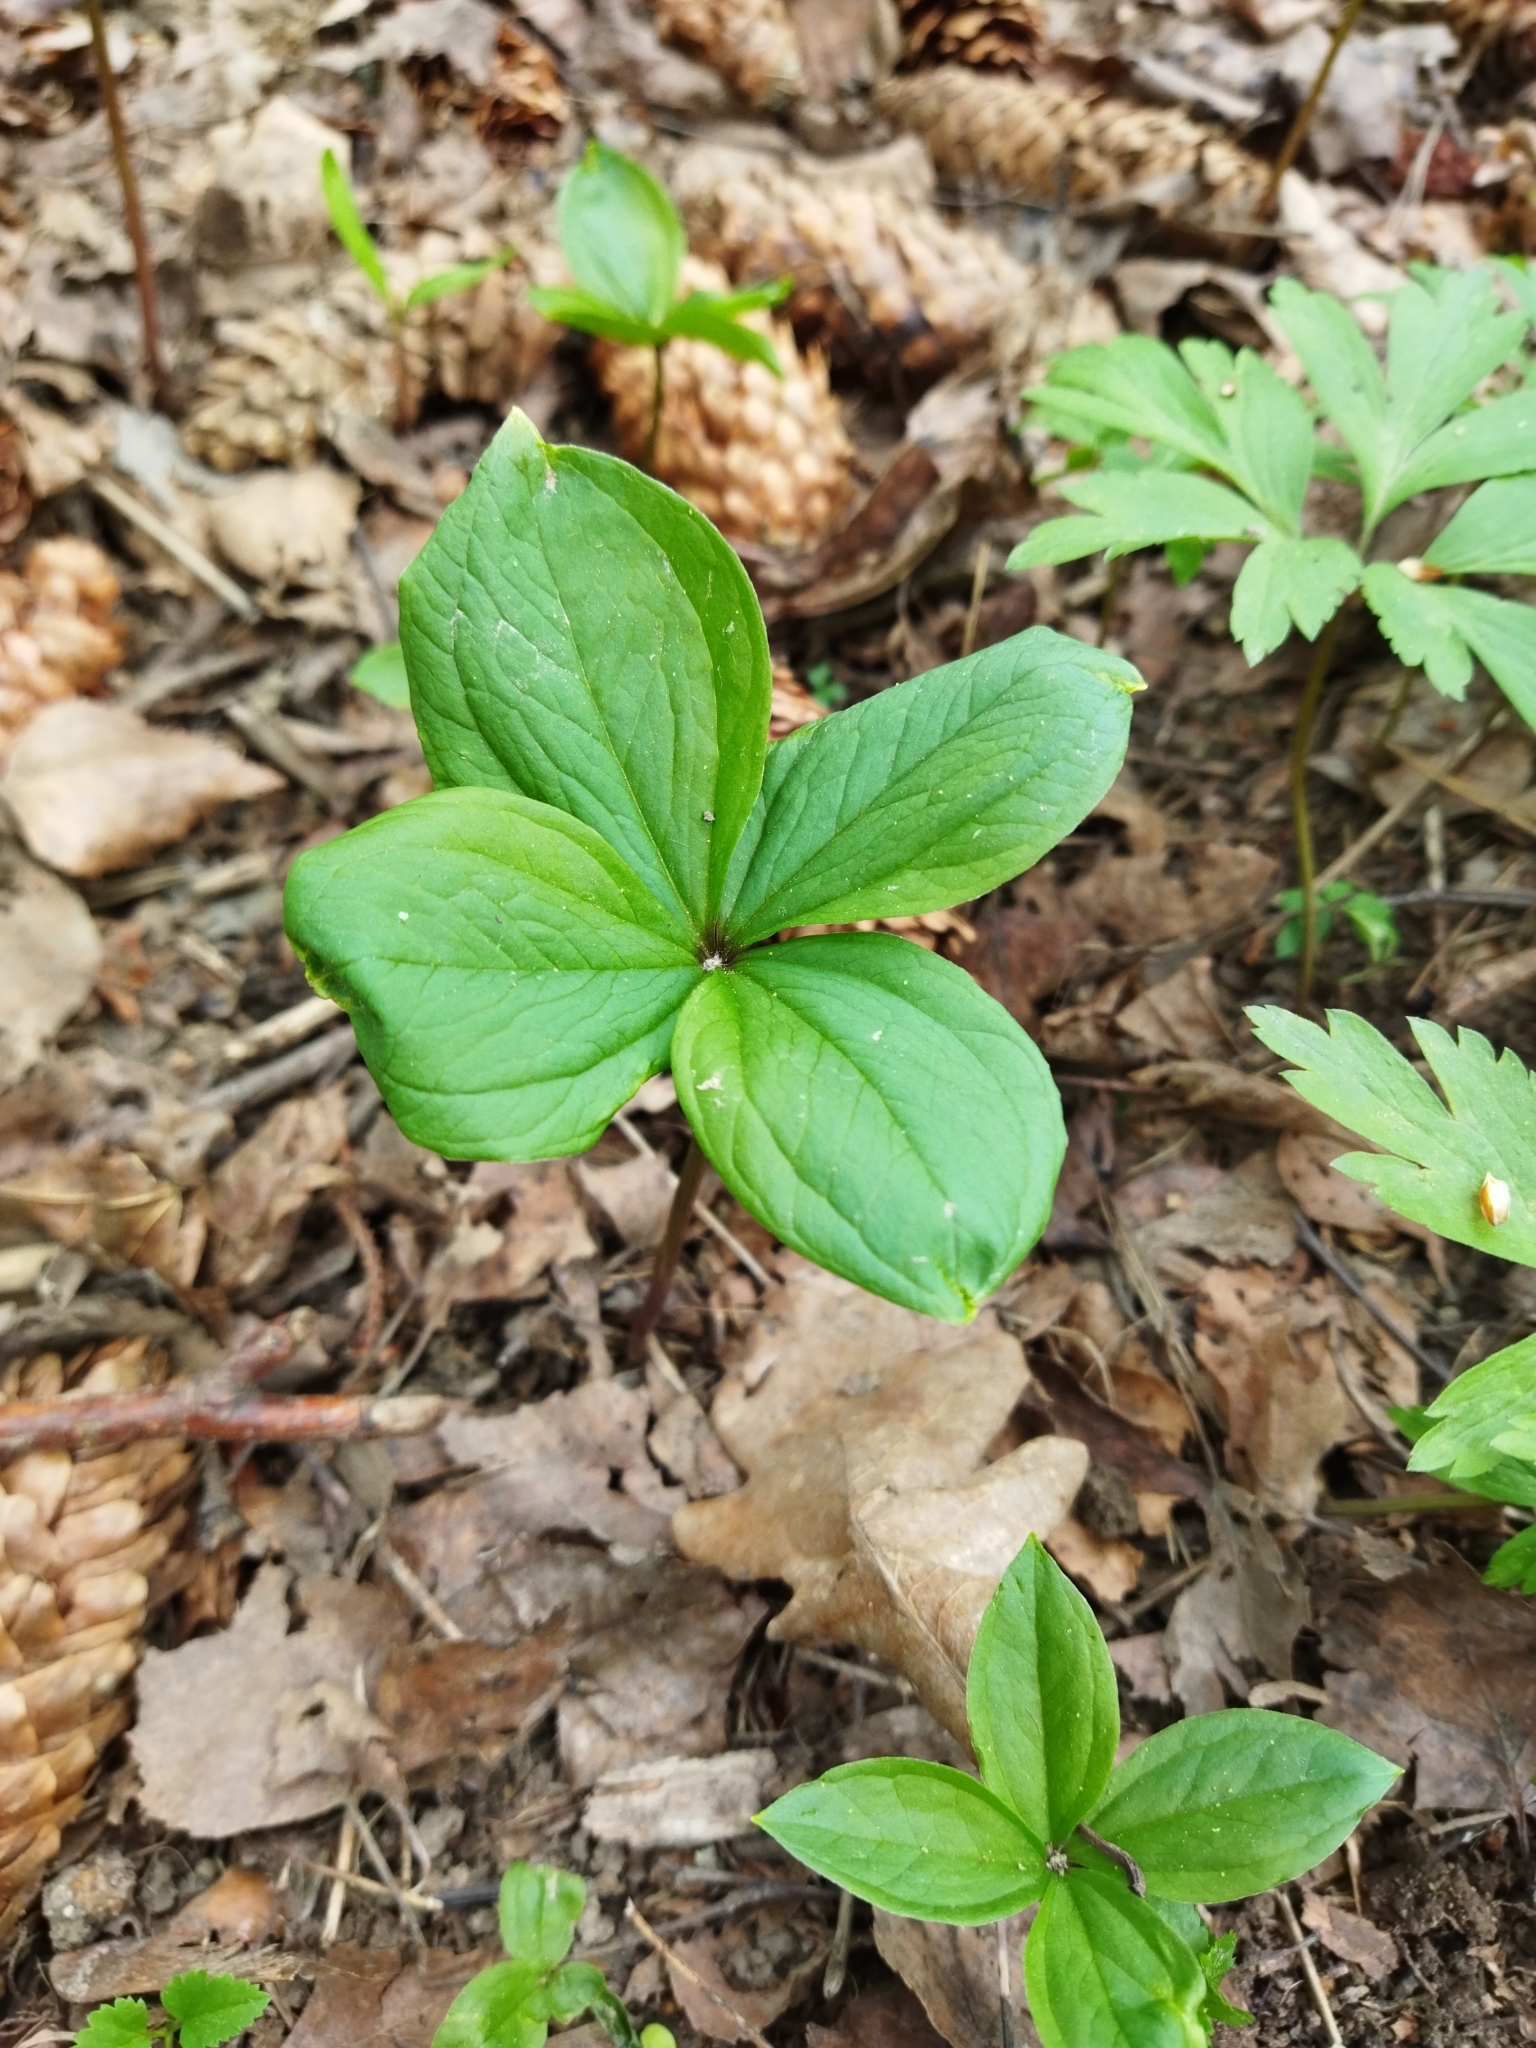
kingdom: Plantae
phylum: Tracheophyta
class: Liliopsida
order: Liliales
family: Melanthiaceae
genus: Paris
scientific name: Paris quadrifolia
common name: Herb-paris
